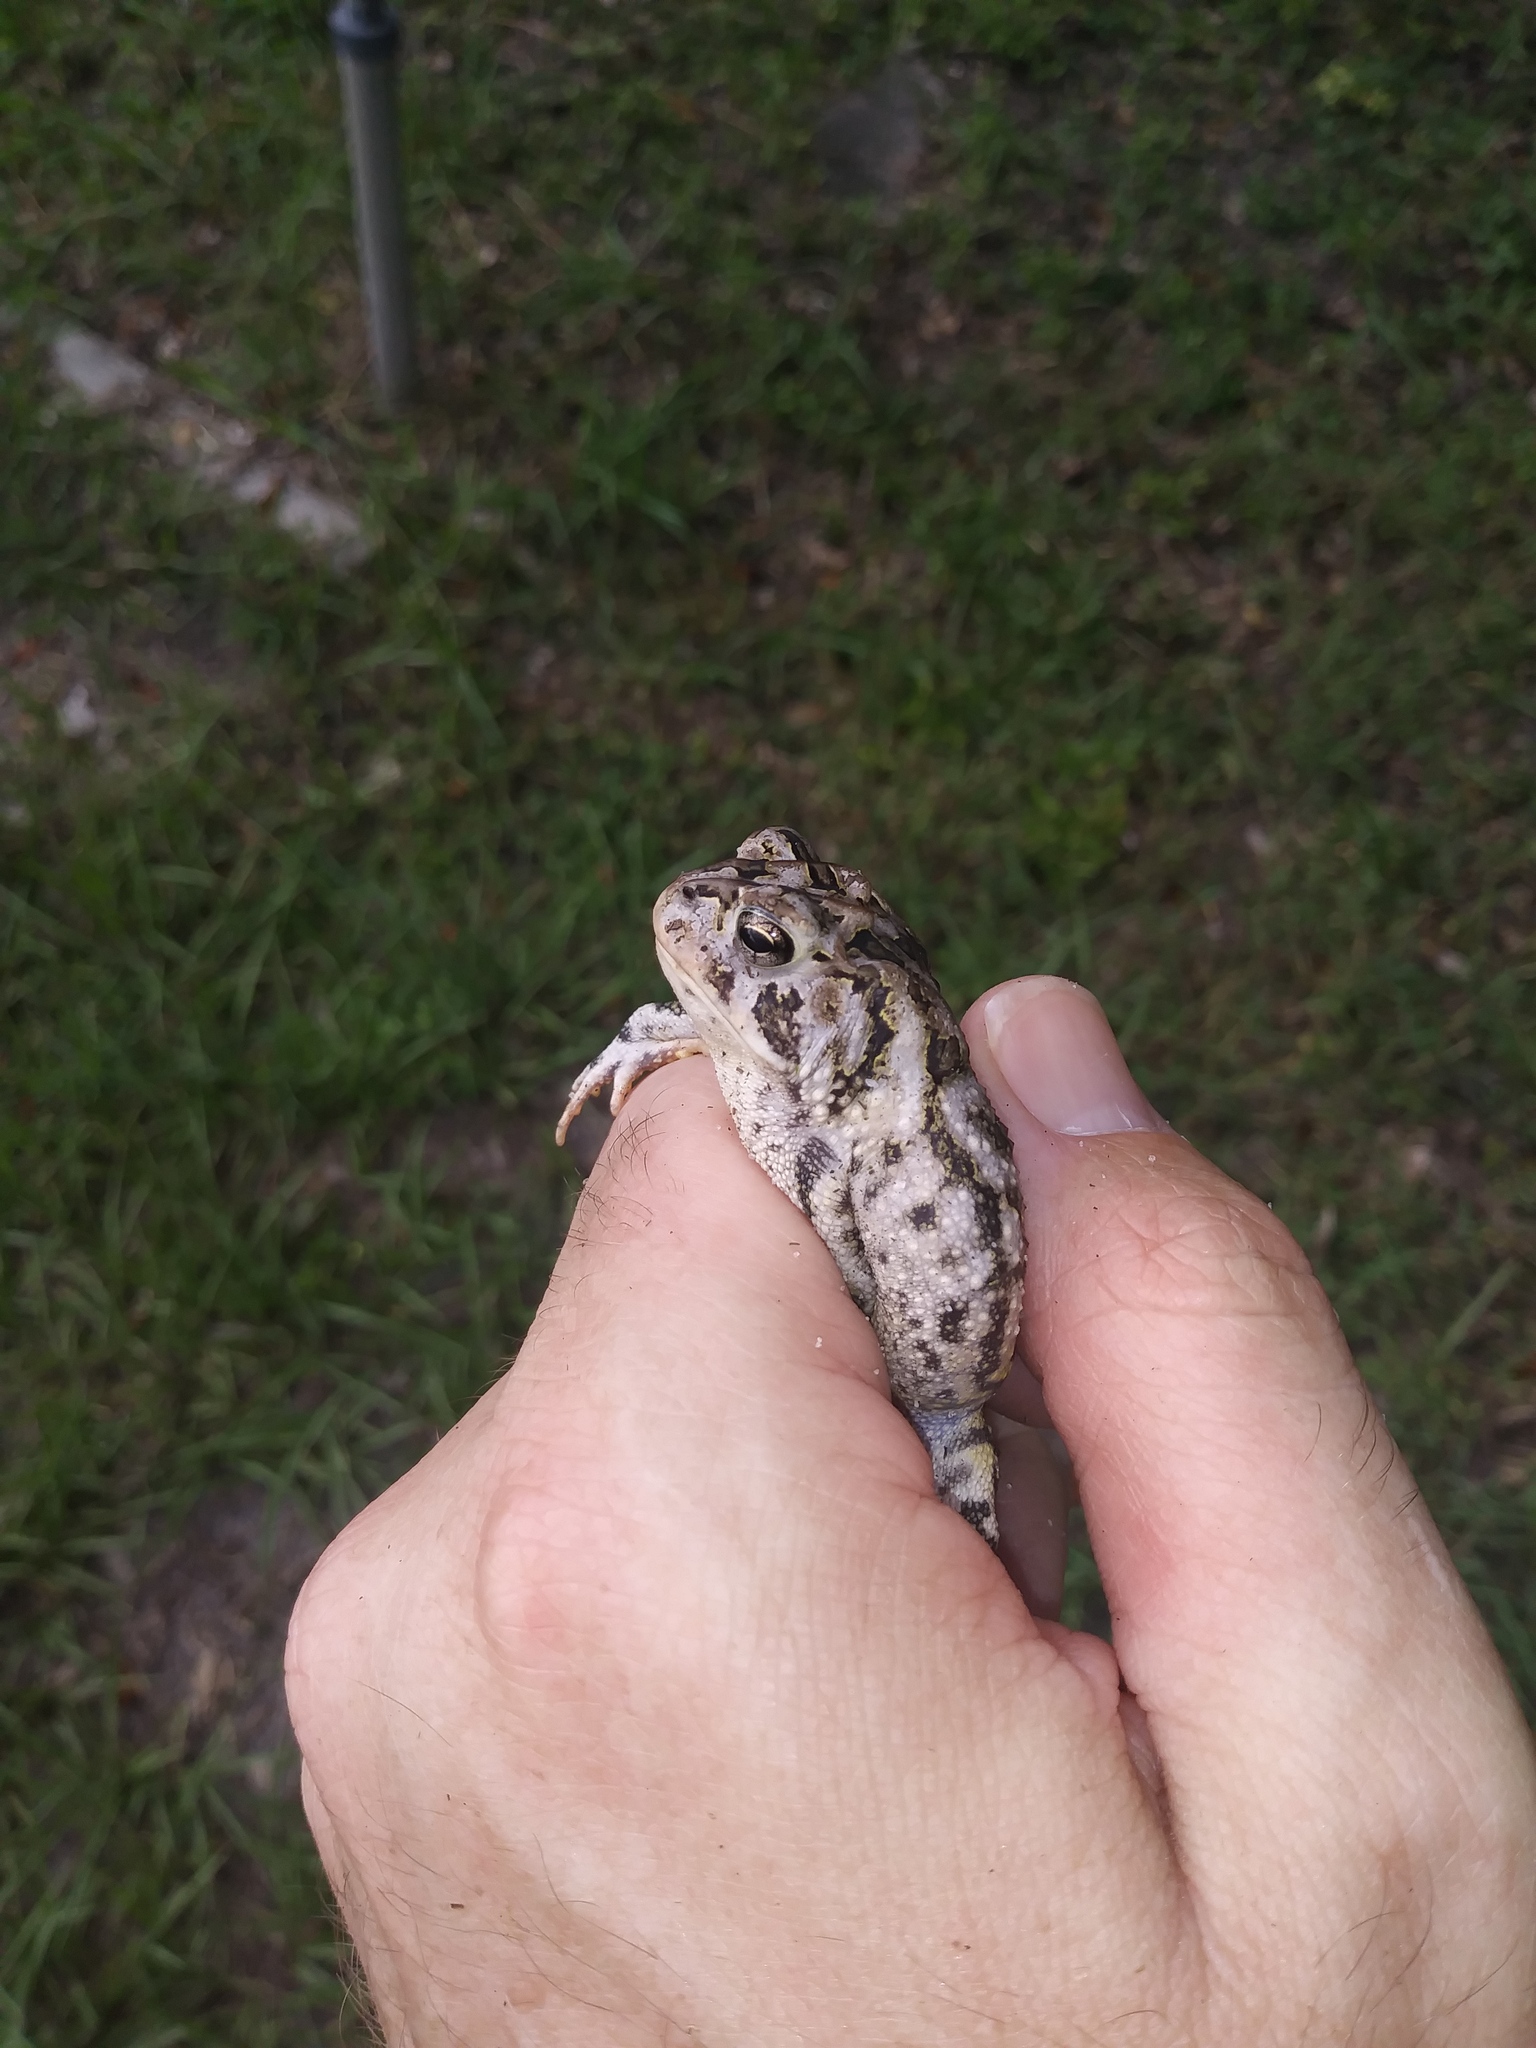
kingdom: Animalia
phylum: Chordata
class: Amphibia
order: Anura
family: Bufonidae
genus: Anaxyrus
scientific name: Anaxyrus terrestris
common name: Southern toad
